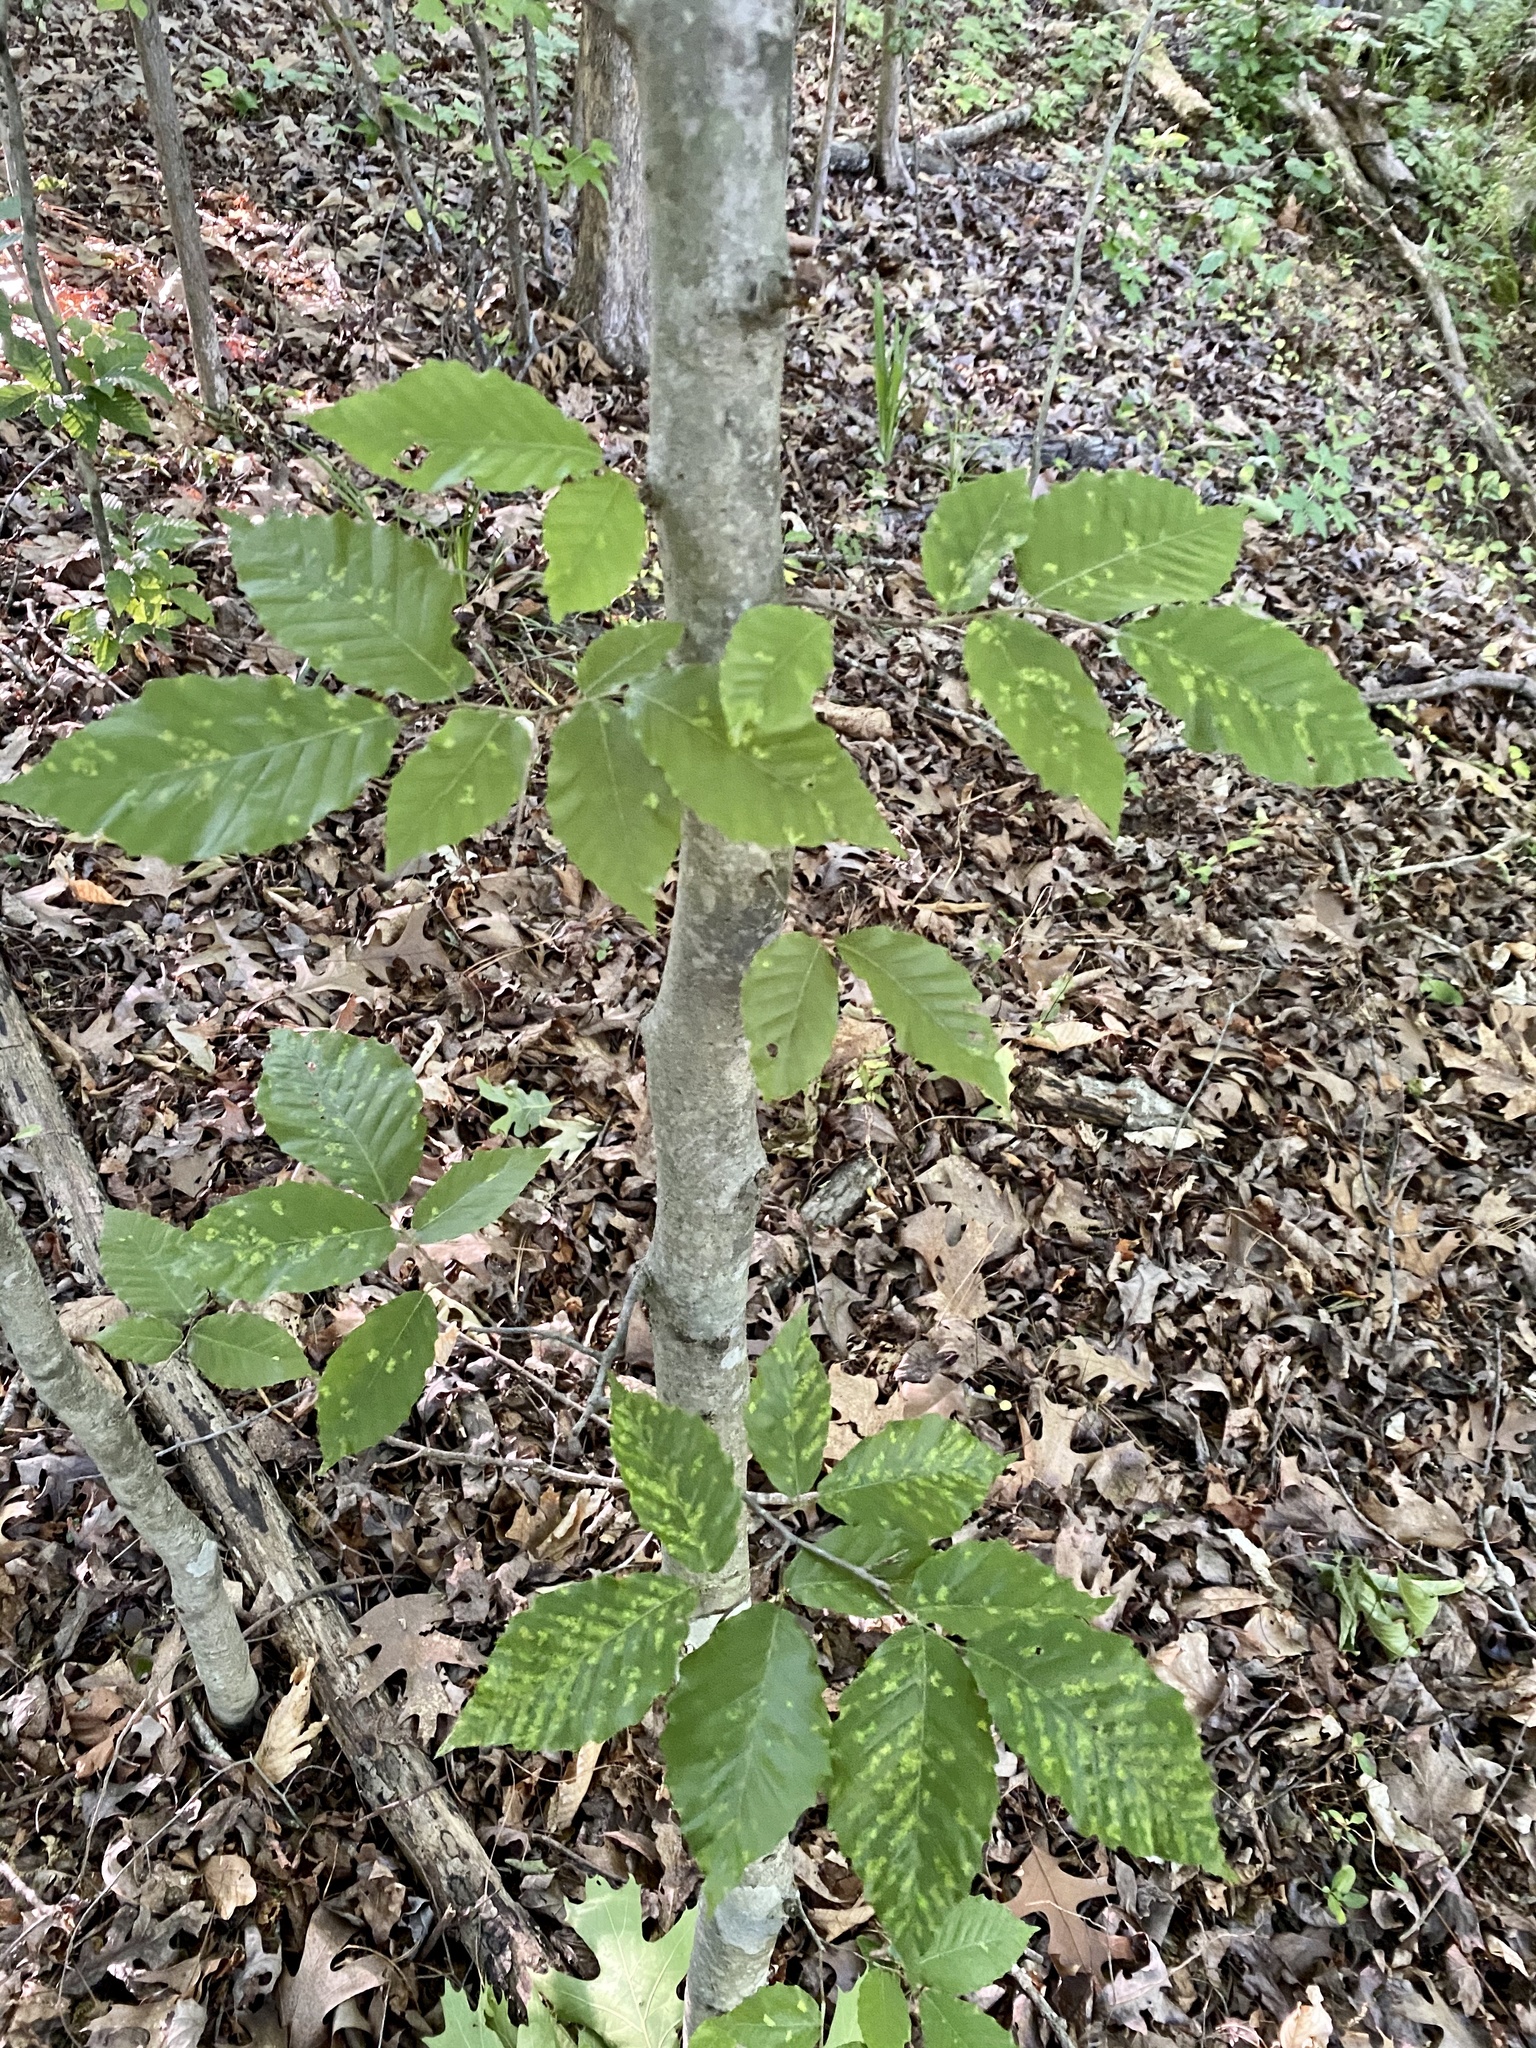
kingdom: Plantae
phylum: Tracheophyta
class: Magnoliopsida
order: Fagales
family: Fagaceae
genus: Fagus
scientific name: Fagus grandifolia
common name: American beech
